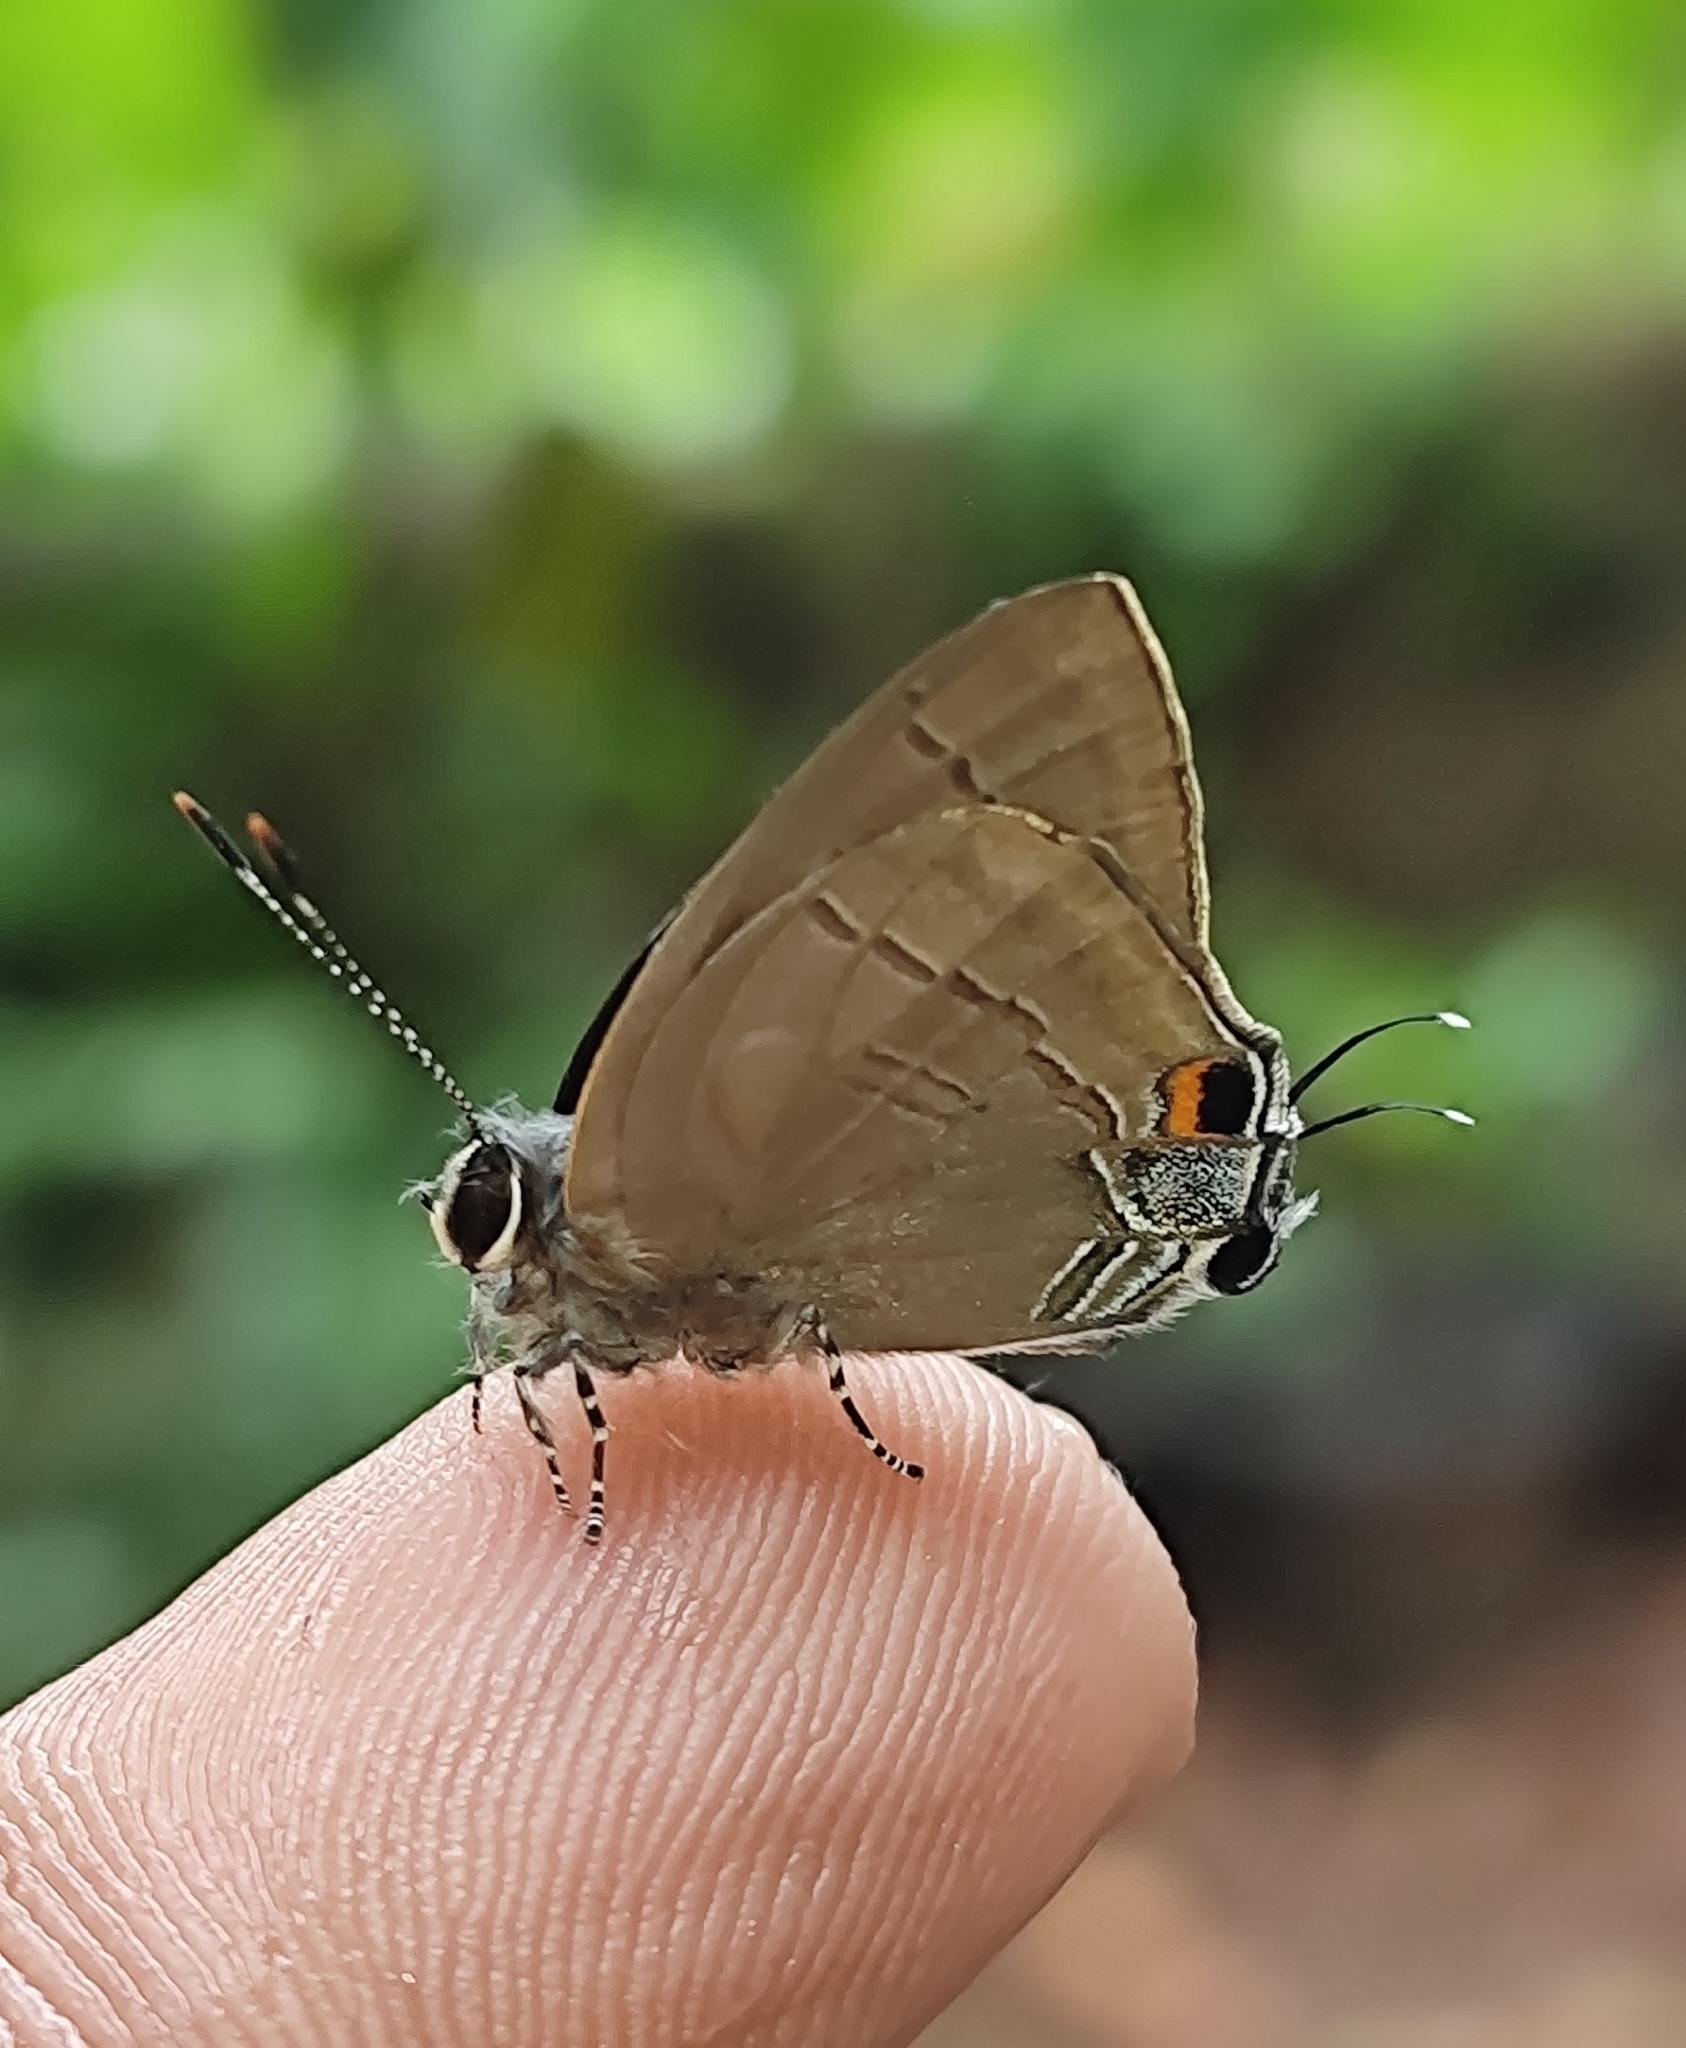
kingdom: Animalia
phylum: Arthropoda
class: Insecta
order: Lepidoptera
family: Lycaenidae
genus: Rapala
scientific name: Rapala manea
